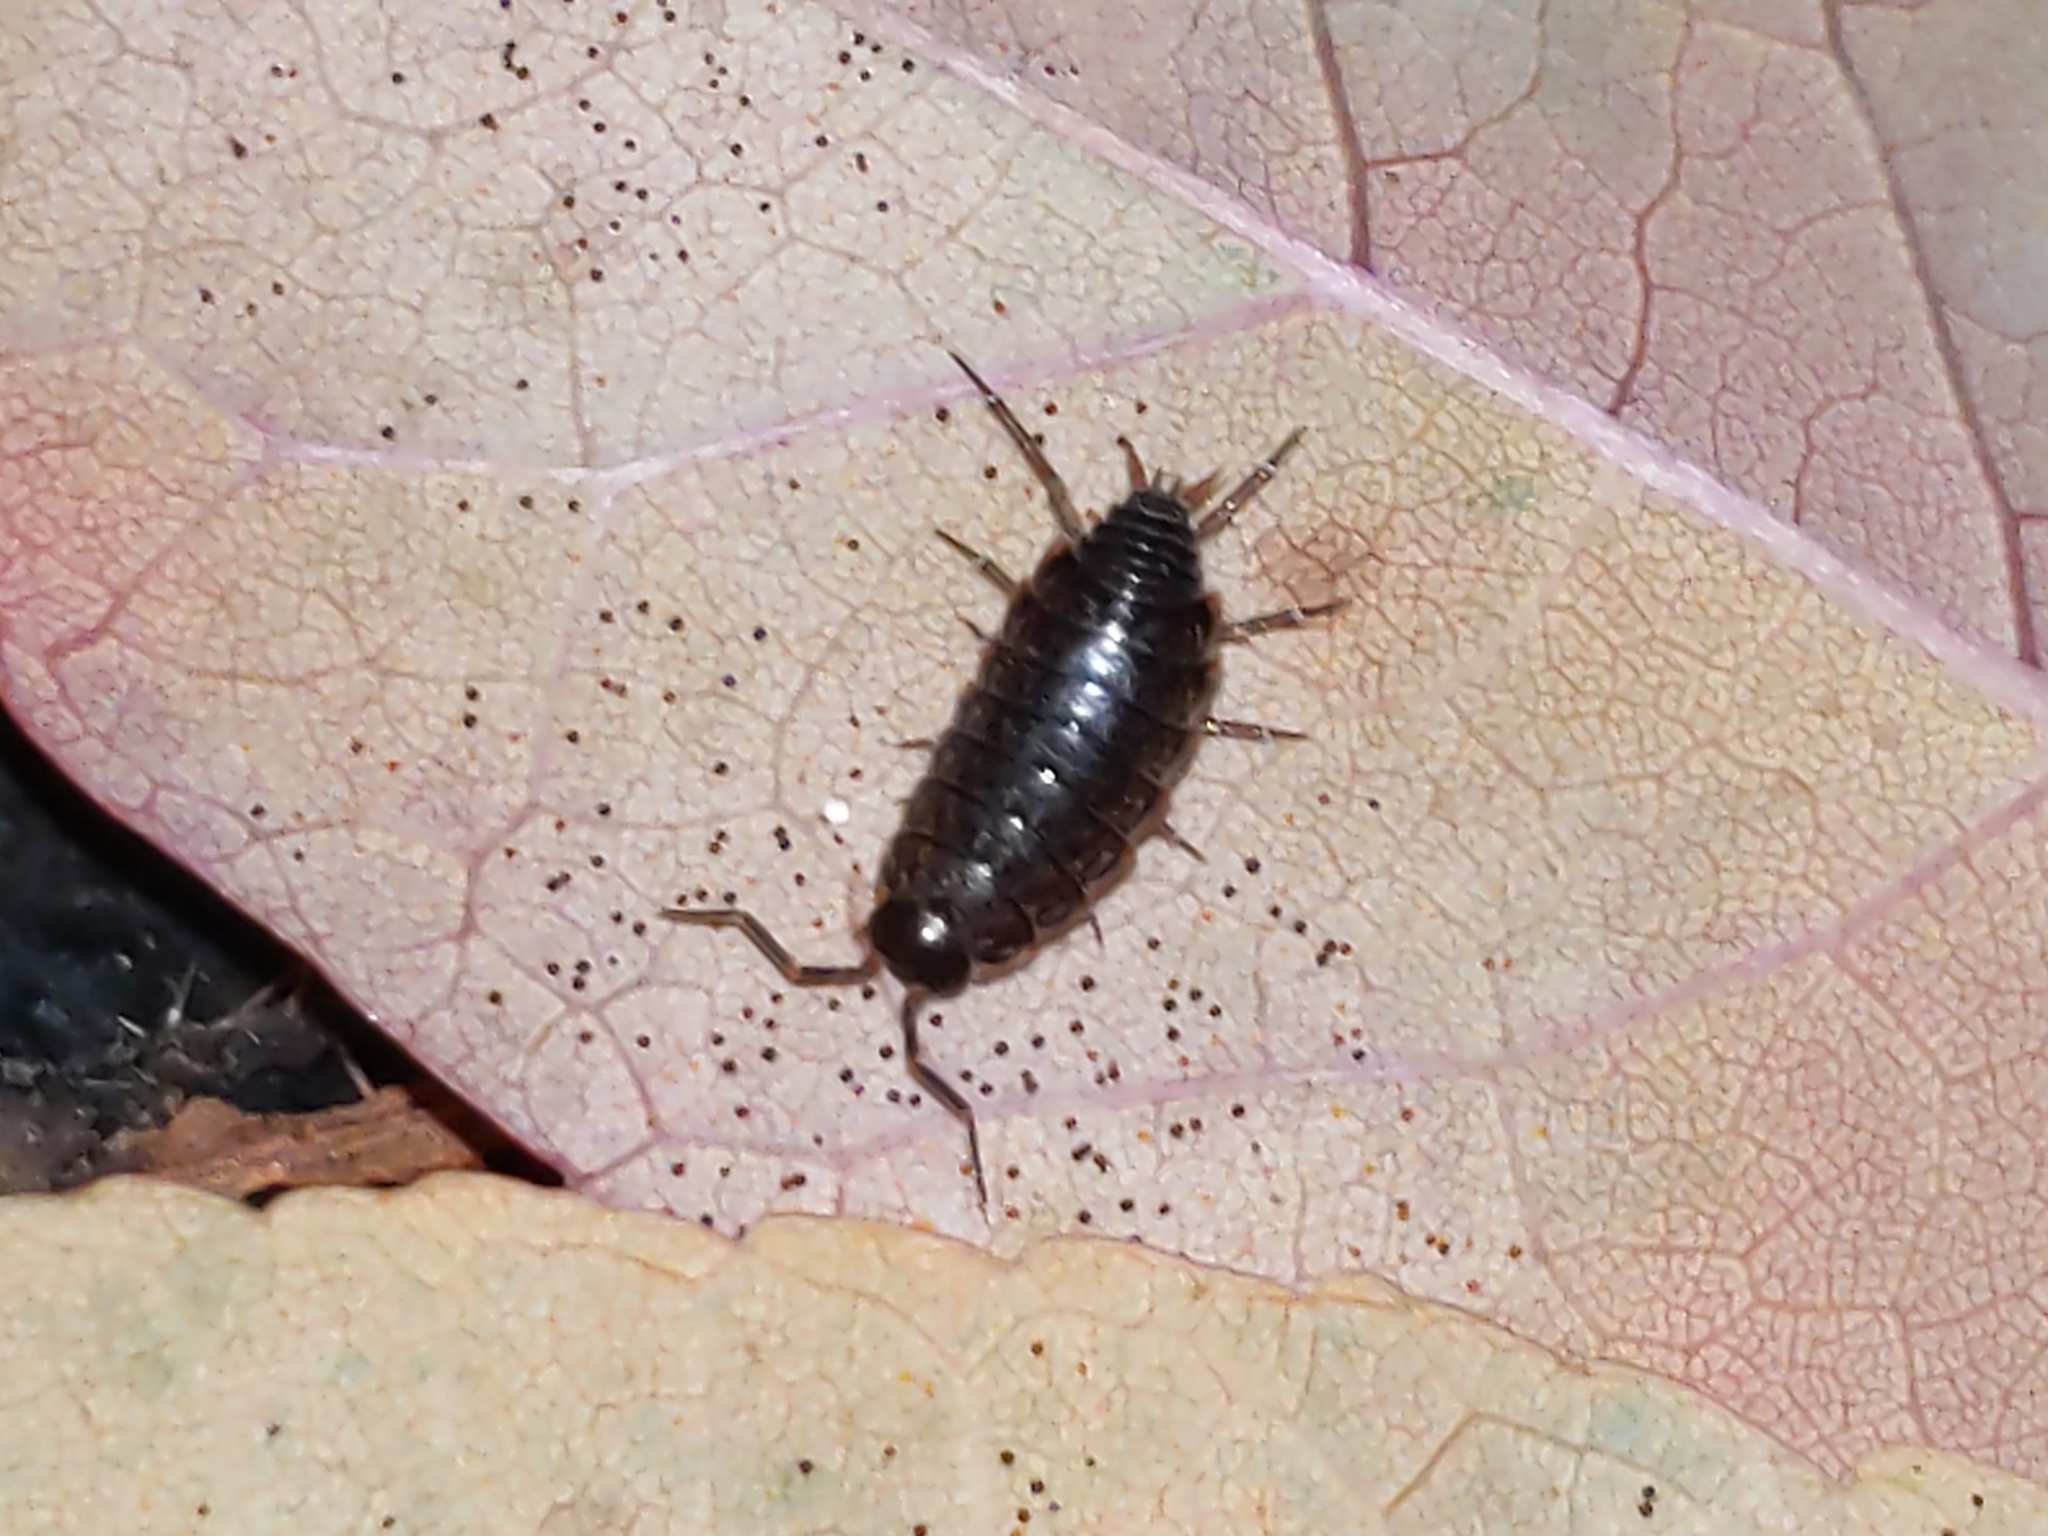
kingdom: Animalia
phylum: Arthropoda
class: Malacostraca
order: Isopoda
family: Philosciidae
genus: Philoscia
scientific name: Philoscia muscorum
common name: Common striped woodlouse
